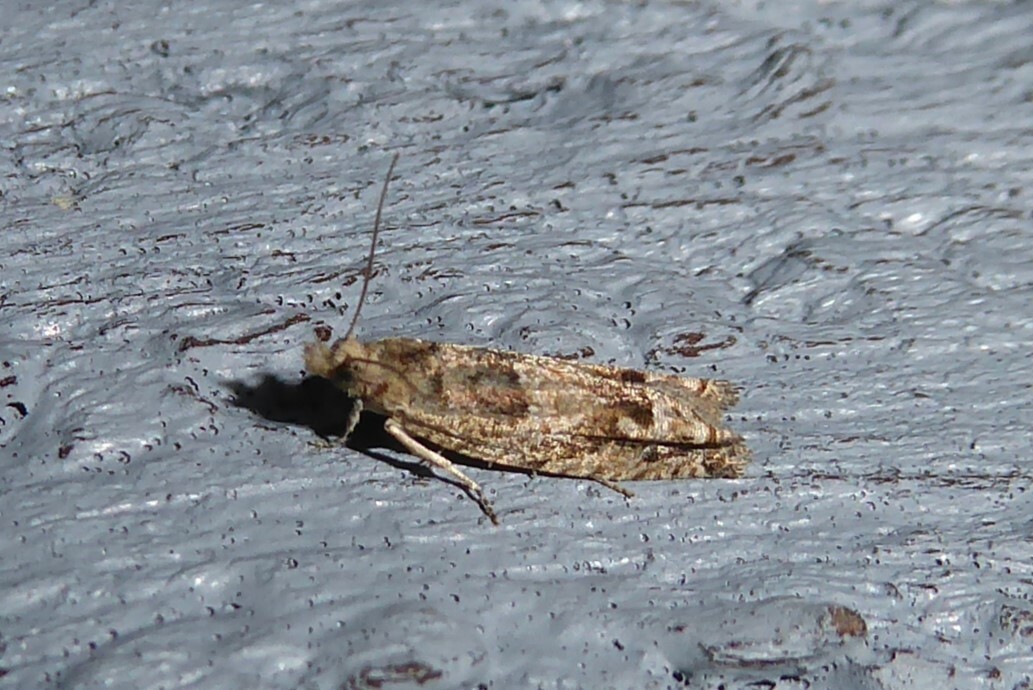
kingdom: Animalia
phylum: Arthropoda
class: Insecta
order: Lepidoptera
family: Tortricidae
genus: Crocidosema
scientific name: Crocidosema plebejana
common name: Southern bell
